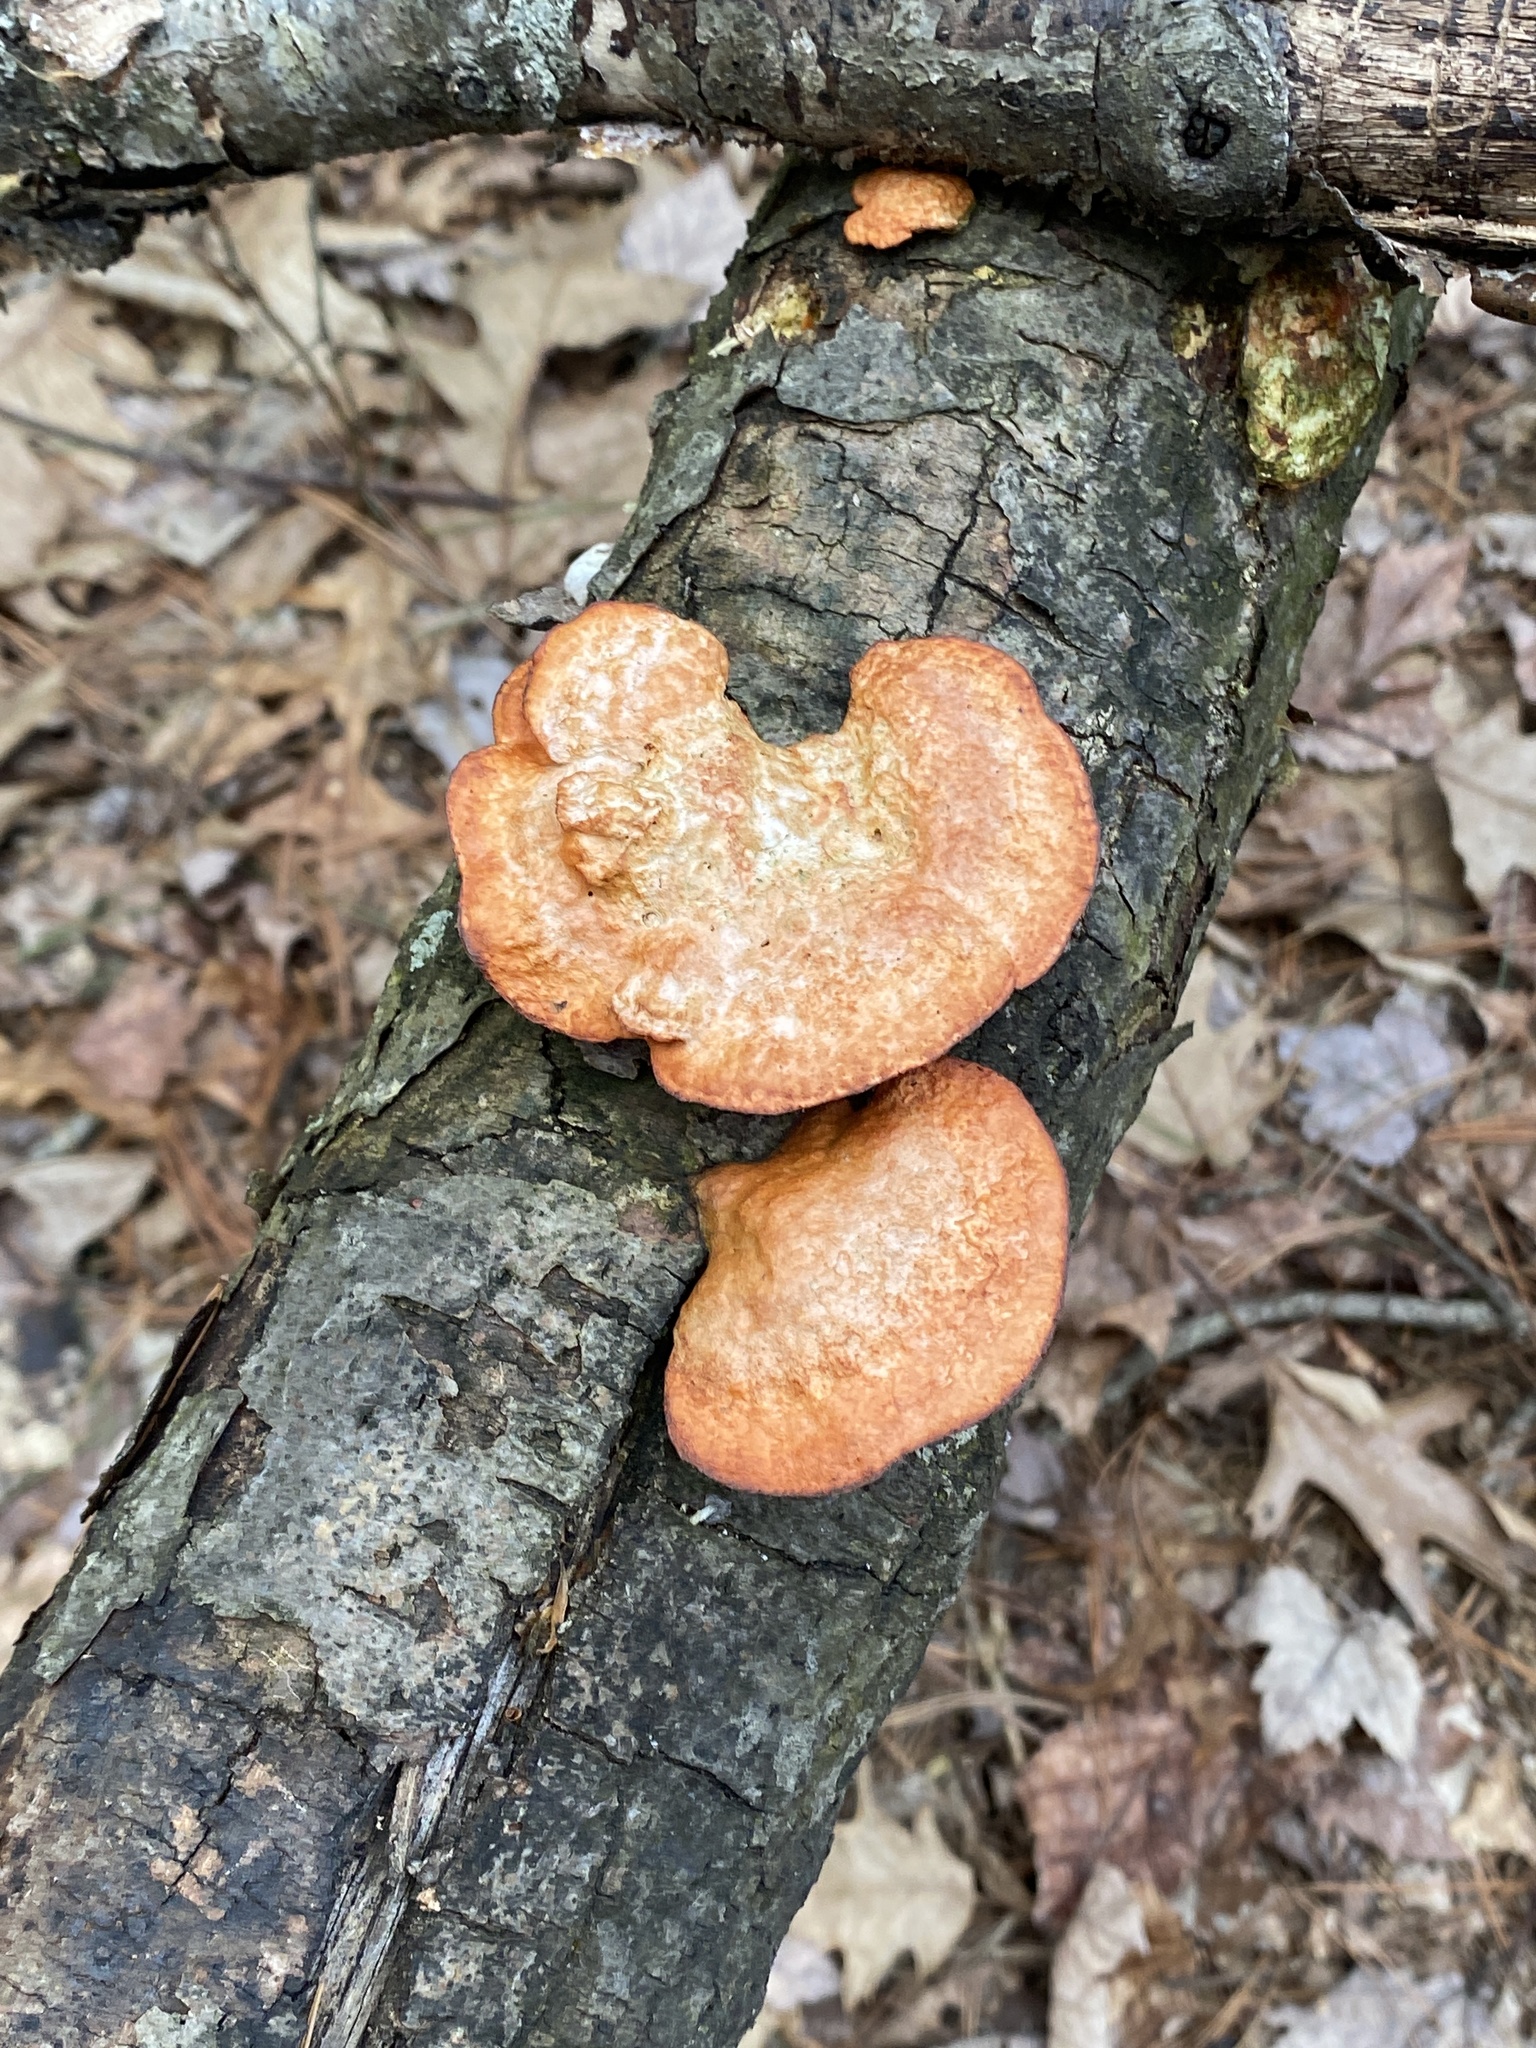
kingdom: Fungi
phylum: Basidiomycota
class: Agaricomycetes
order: Polyporales
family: Polyporaceae
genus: Trametes
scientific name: Trametes cinnabarina
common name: Northern cinnabar polypore
